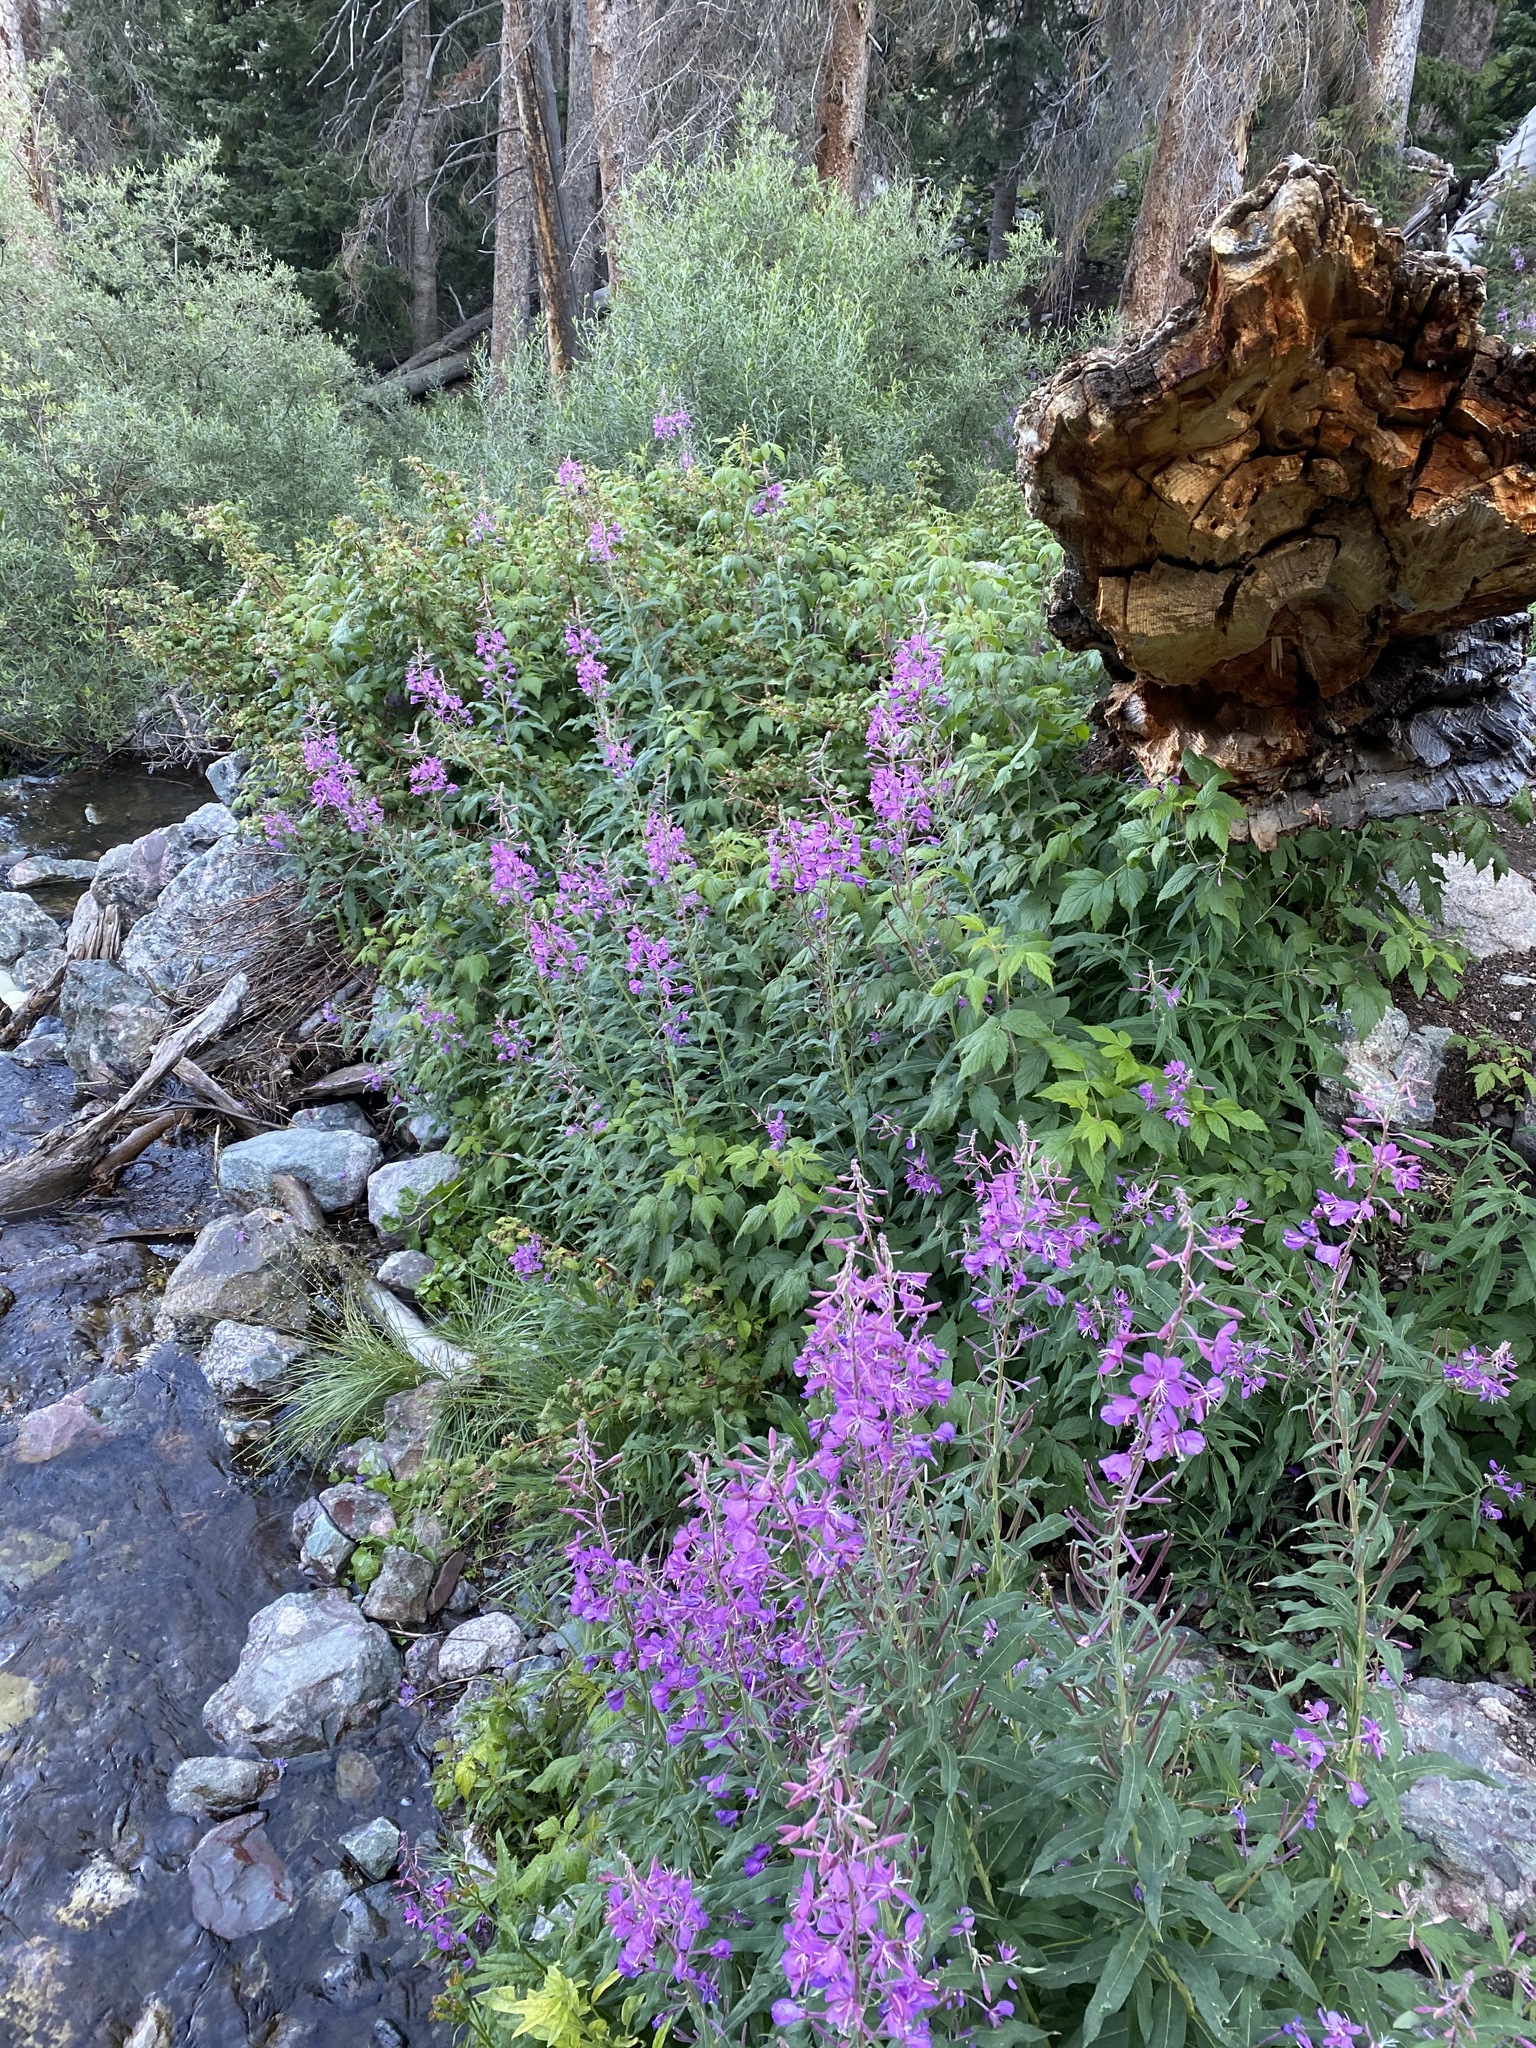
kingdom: Plantae
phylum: Tracheophyta
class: Magnoliopsida
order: Myrtales
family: Onagraceae
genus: Chamaenerion
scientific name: Chamaenerion angustifolium
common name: Fireweed
